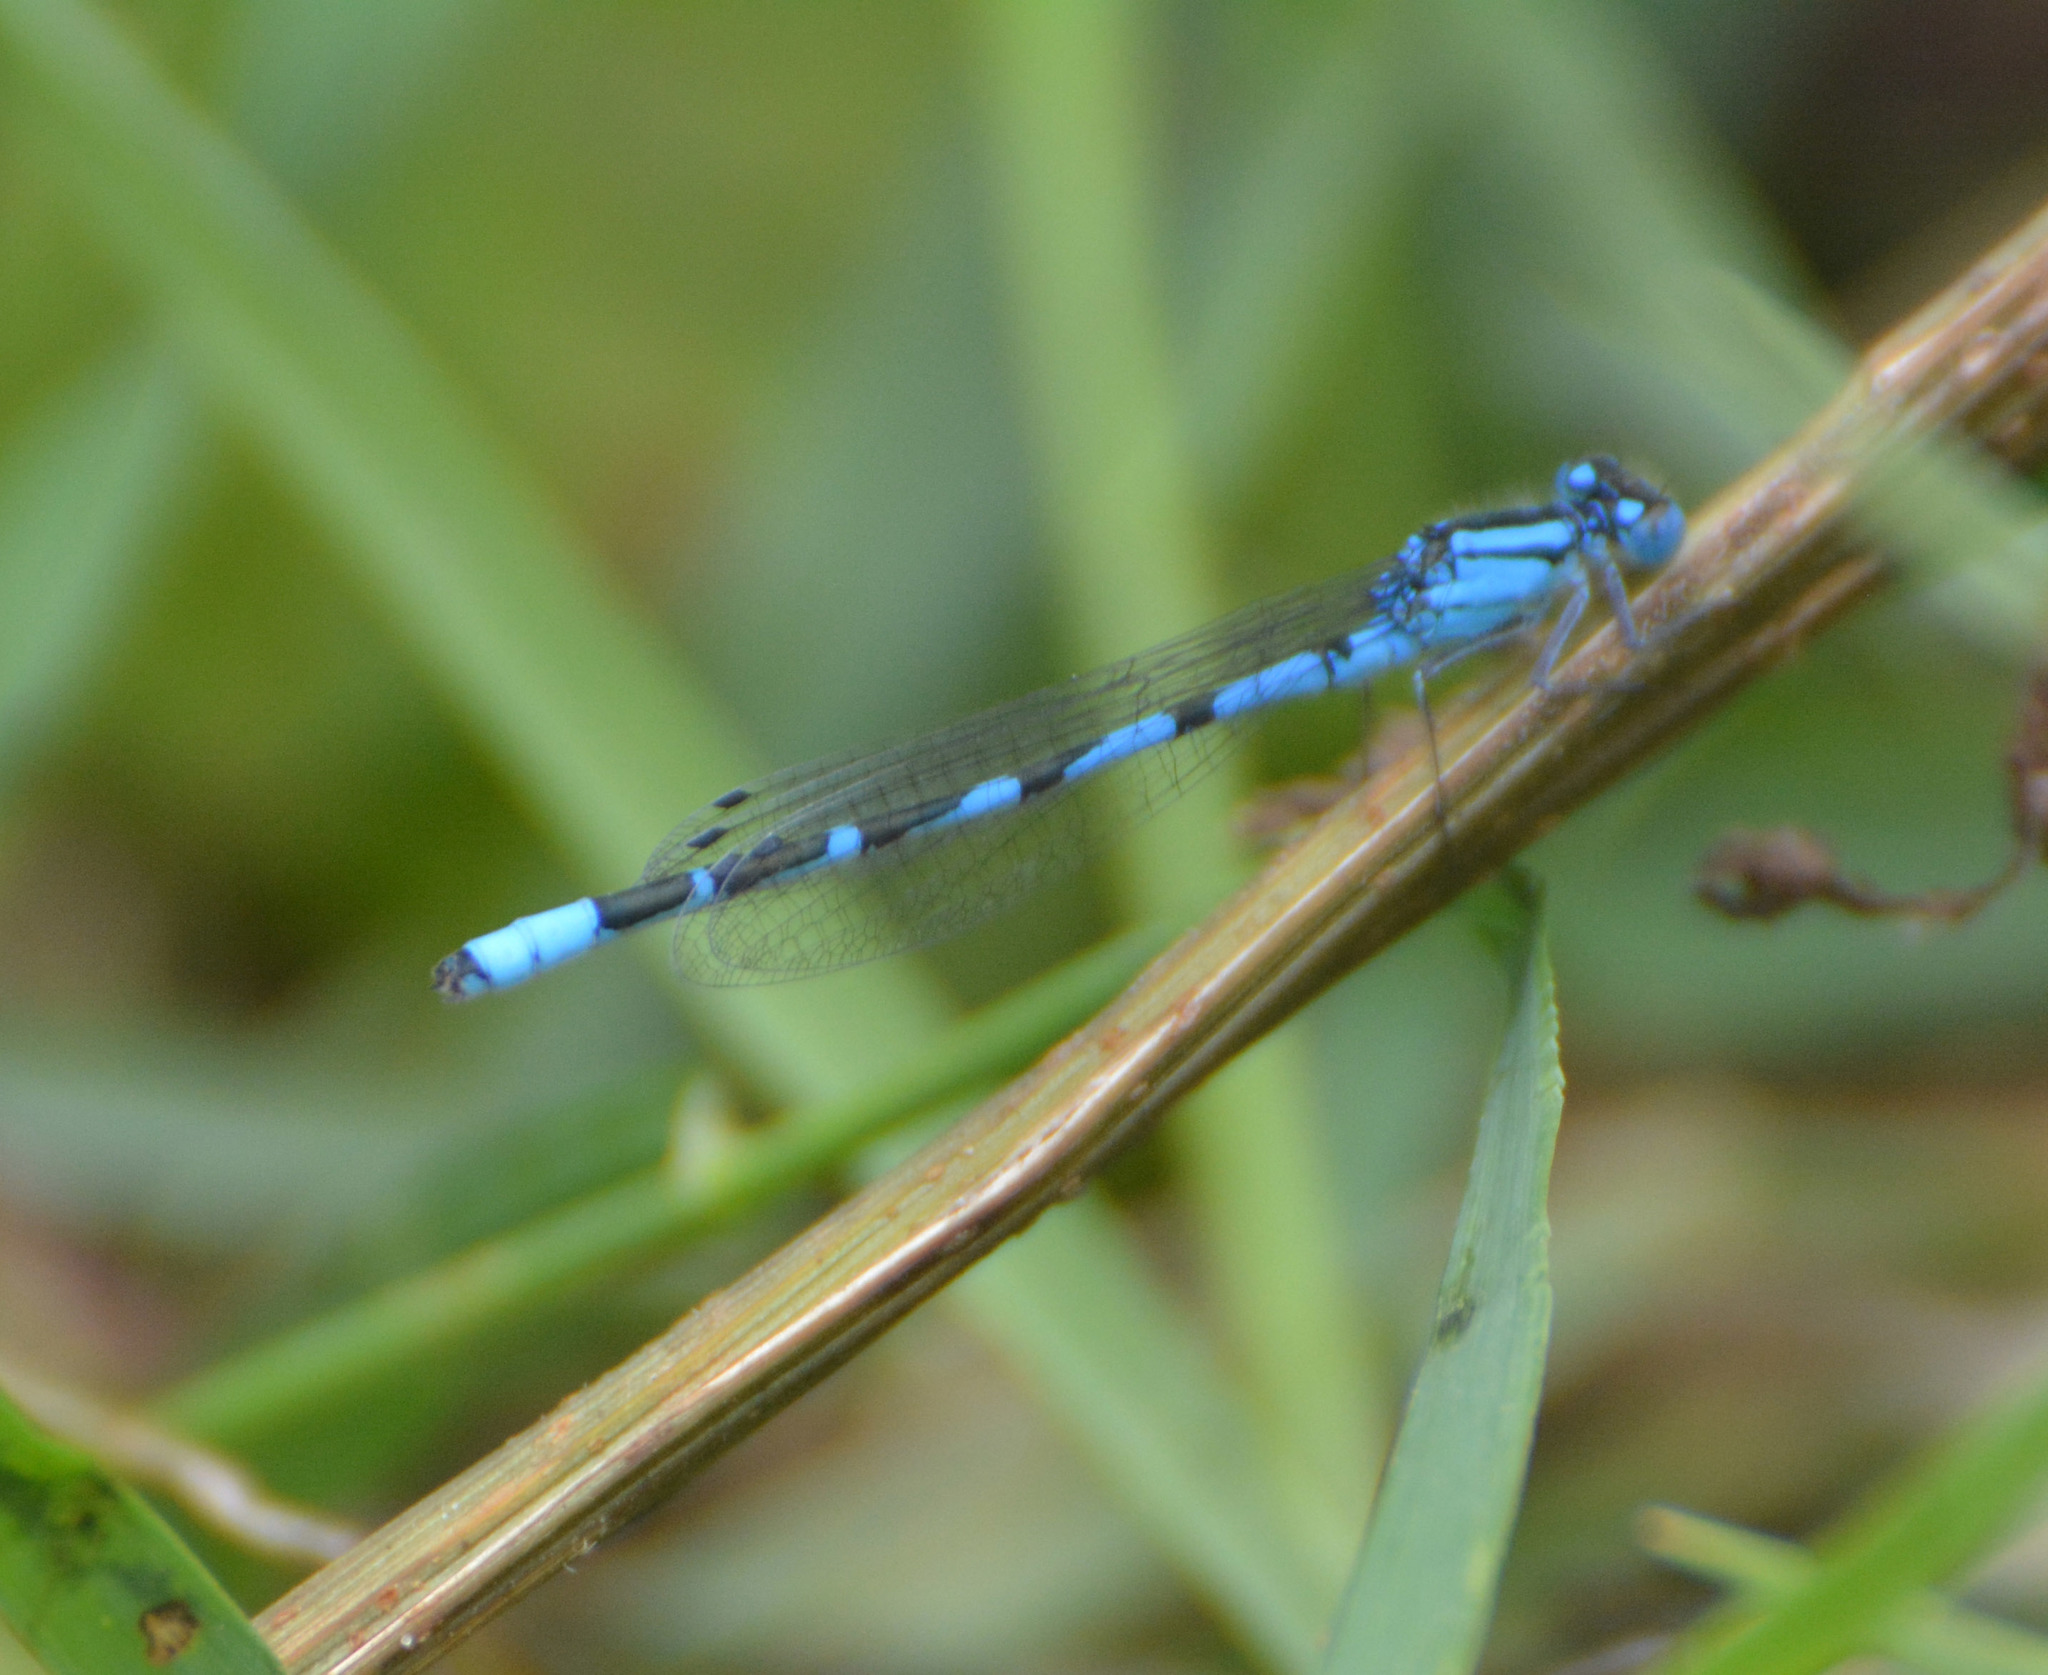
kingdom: Animalia
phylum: Arthropoda
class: Insecta
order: Odonata
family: Coenagrionidae
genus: Enallagma
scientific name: Enallagma cyathigerum
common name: Common blue damselfly
